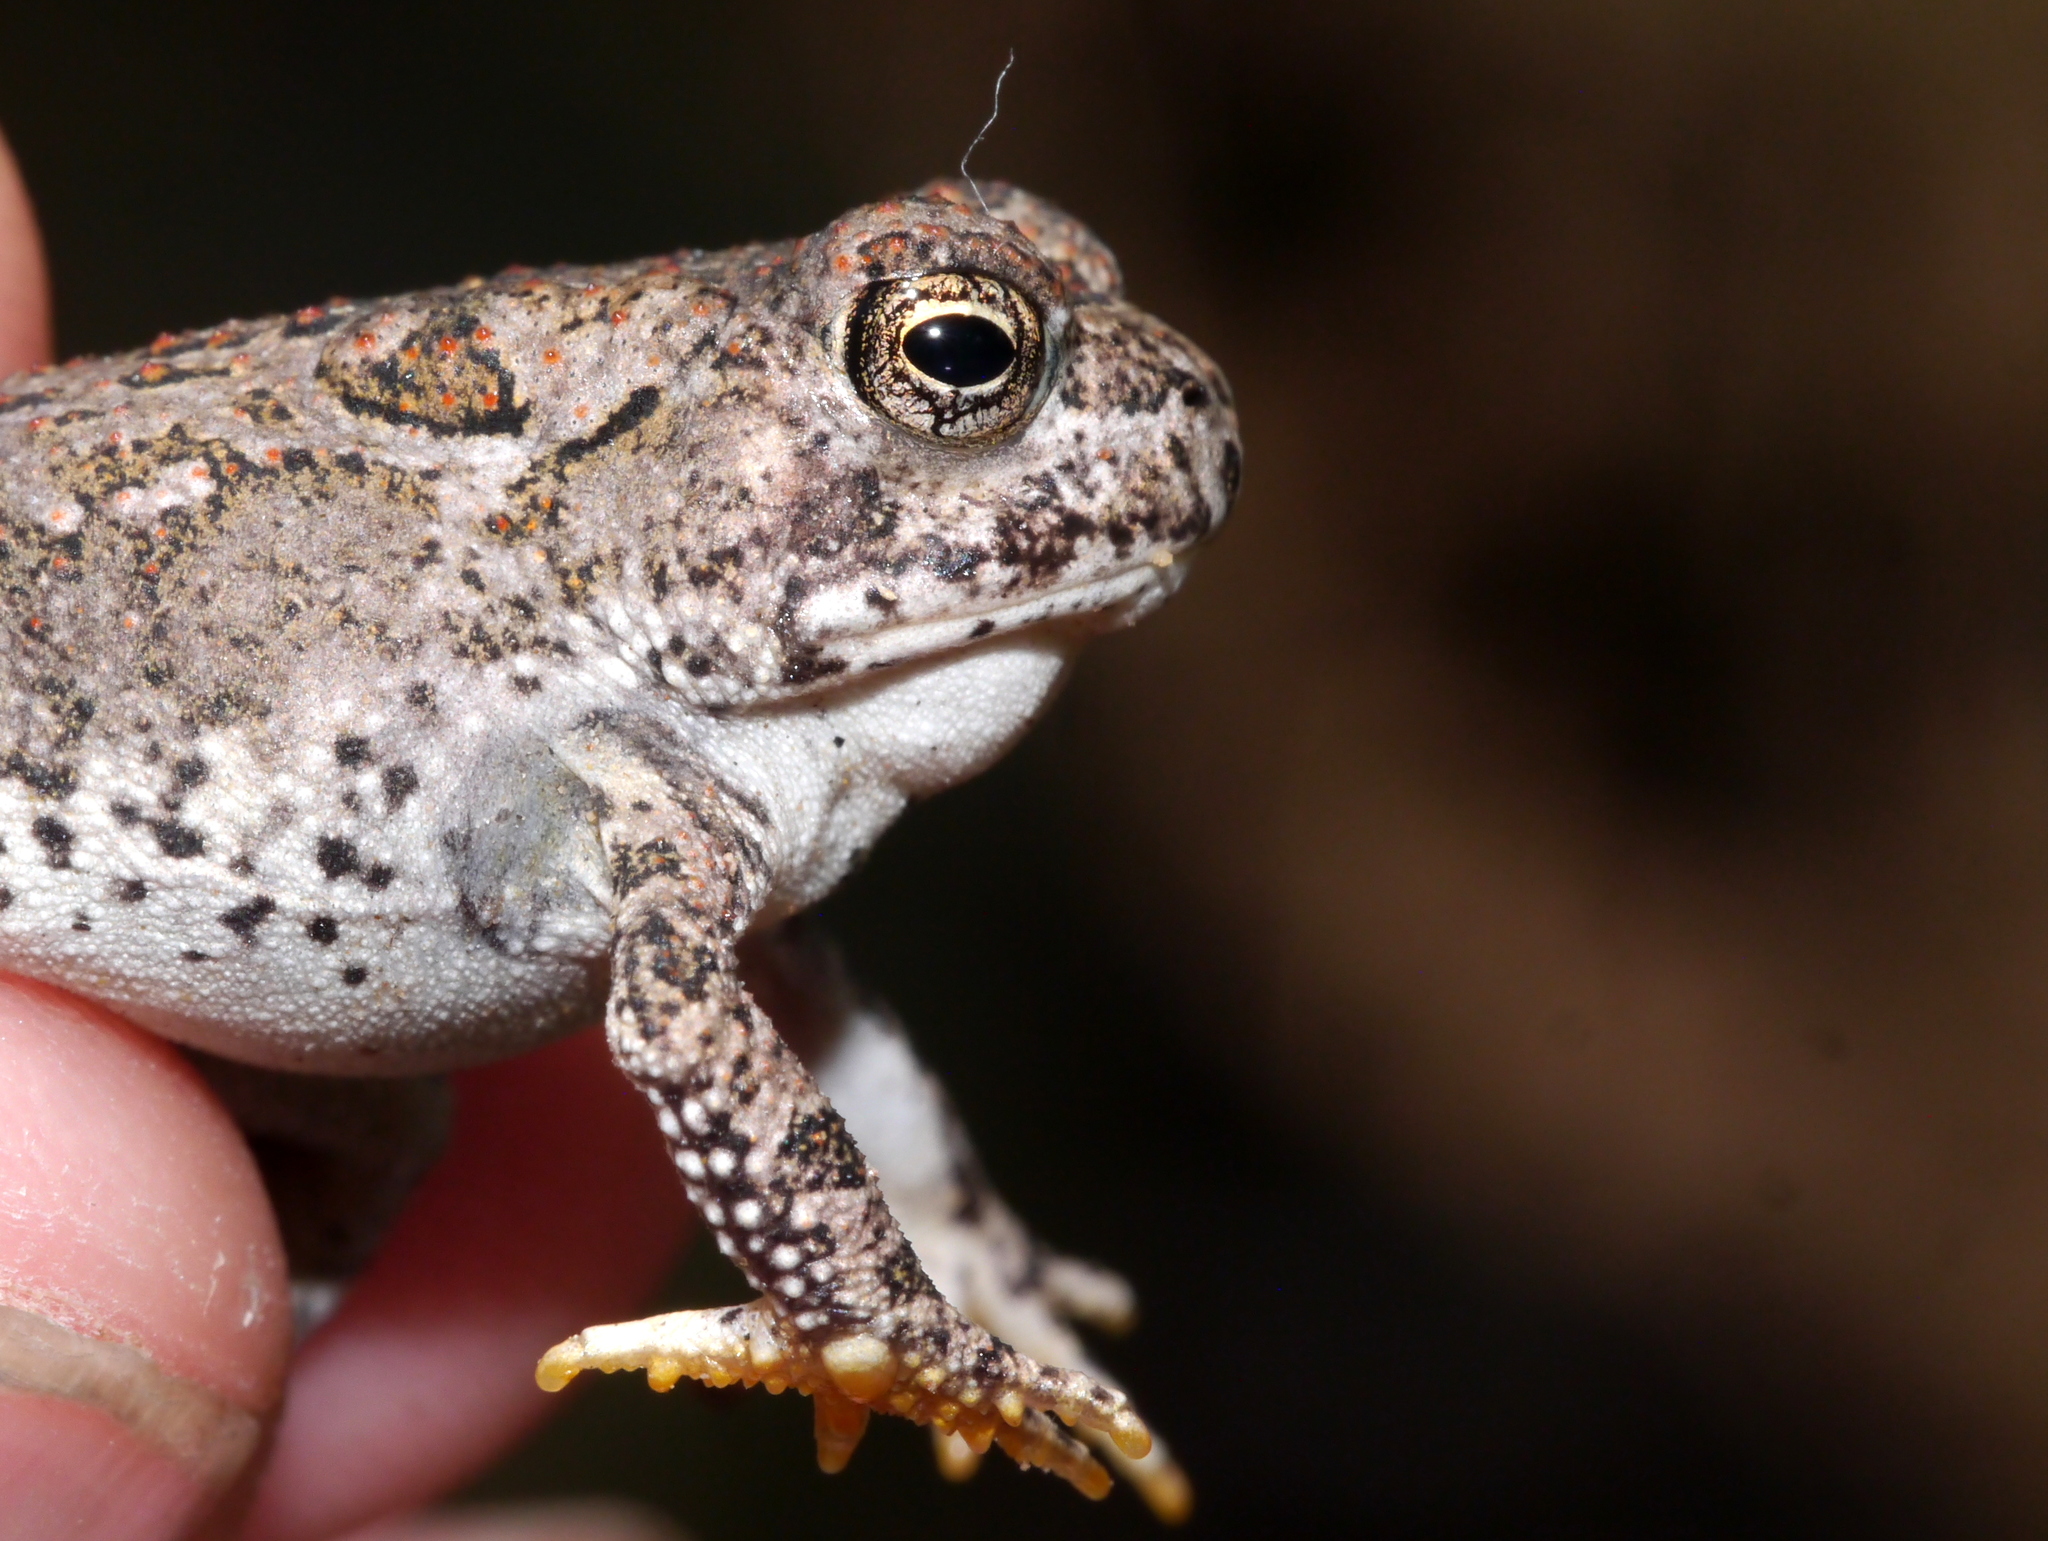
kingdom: Animalia
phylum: Chordata
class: Amphibia
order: Anura
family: Bufonidae
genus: Anaxyrus
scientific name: Anaxyrus woodhousii
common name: Woodhouse's toad
